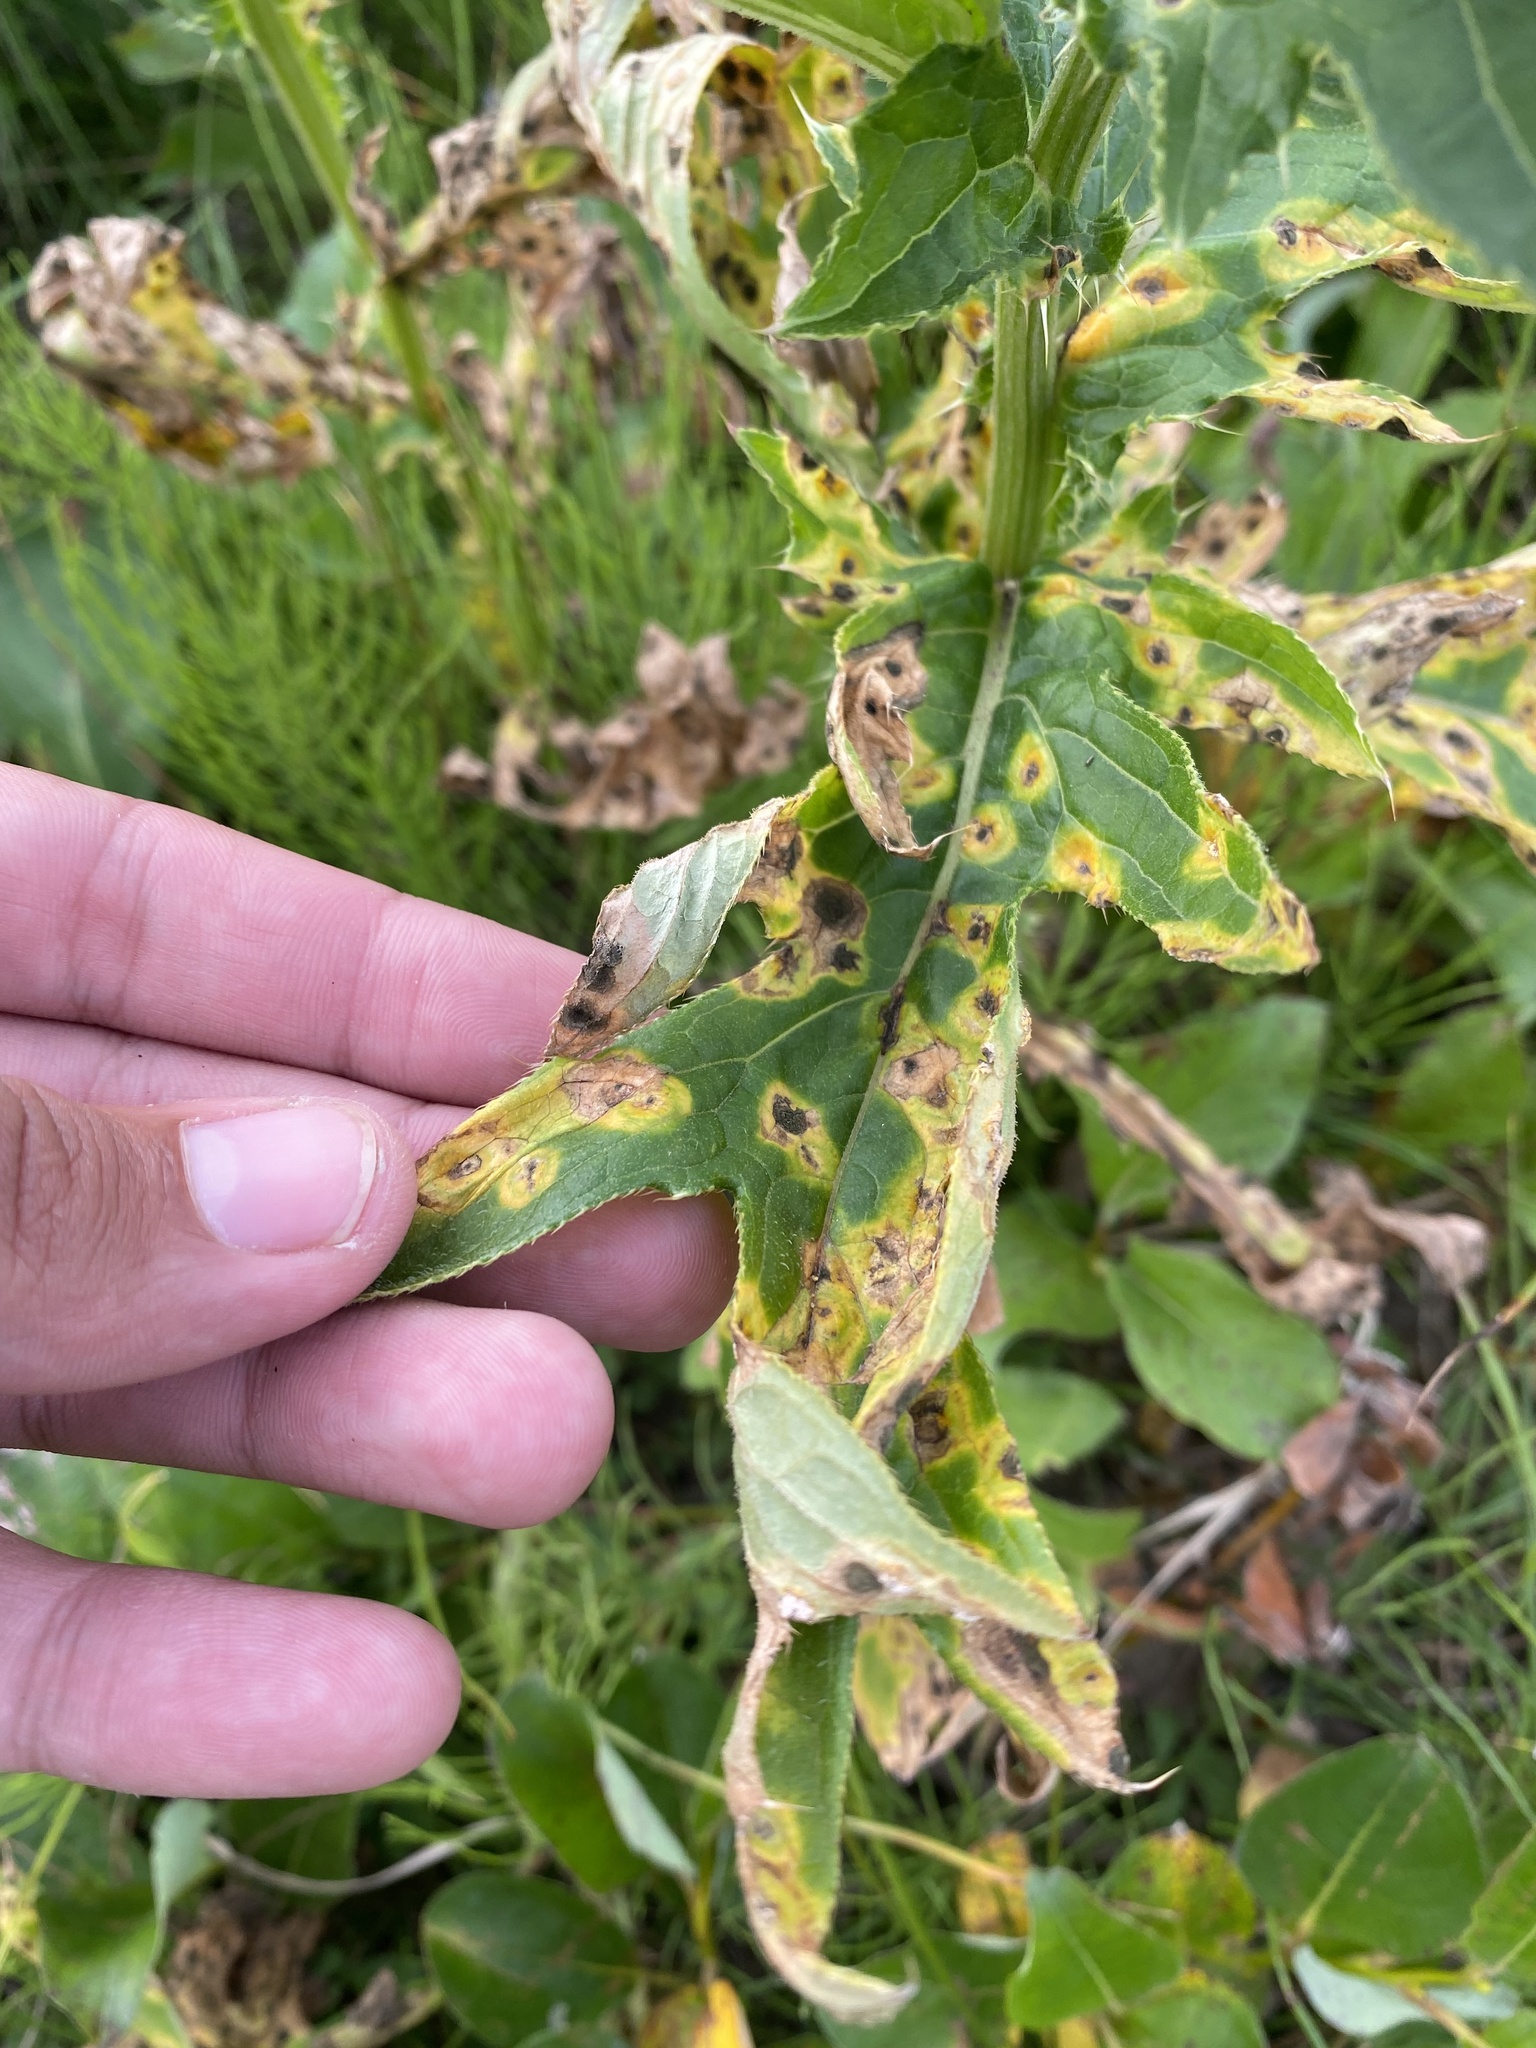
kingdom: Plantae
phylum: Tracheophyta
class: Magnoliopsida
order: Asterales
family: Asteraceae
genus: Cirsium
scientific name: Cirsium kamtschaticum
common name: Kamchatka thistle
